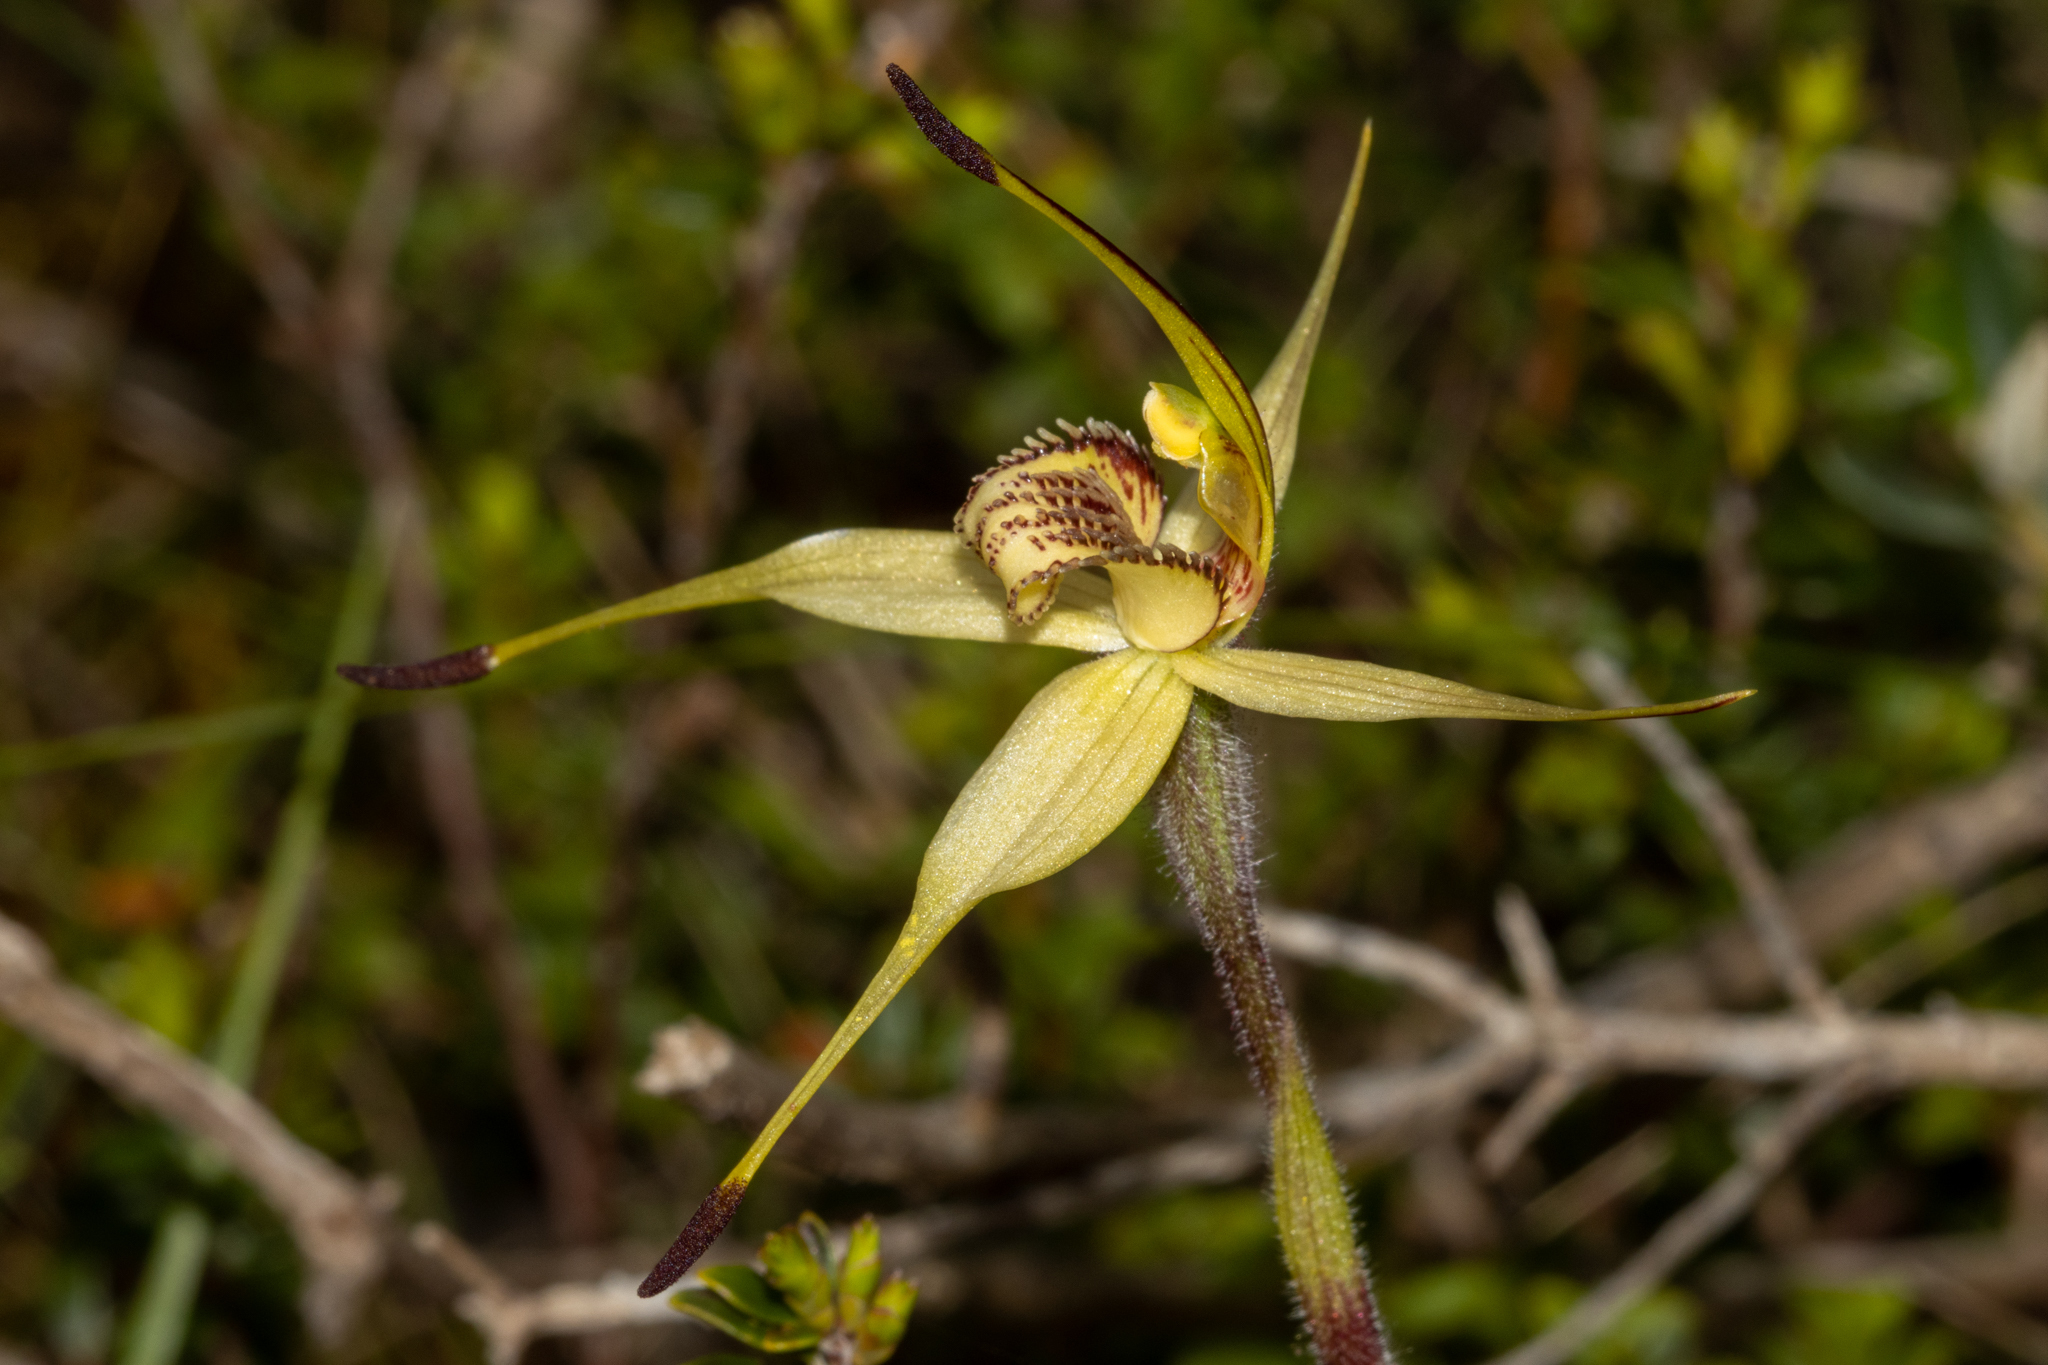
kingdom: Plantae
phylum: Tracheophyta
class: Liliopsida
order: Asparagales
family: Orchidaceae
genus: Caladenia
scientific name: Caladenia richardsiorum
